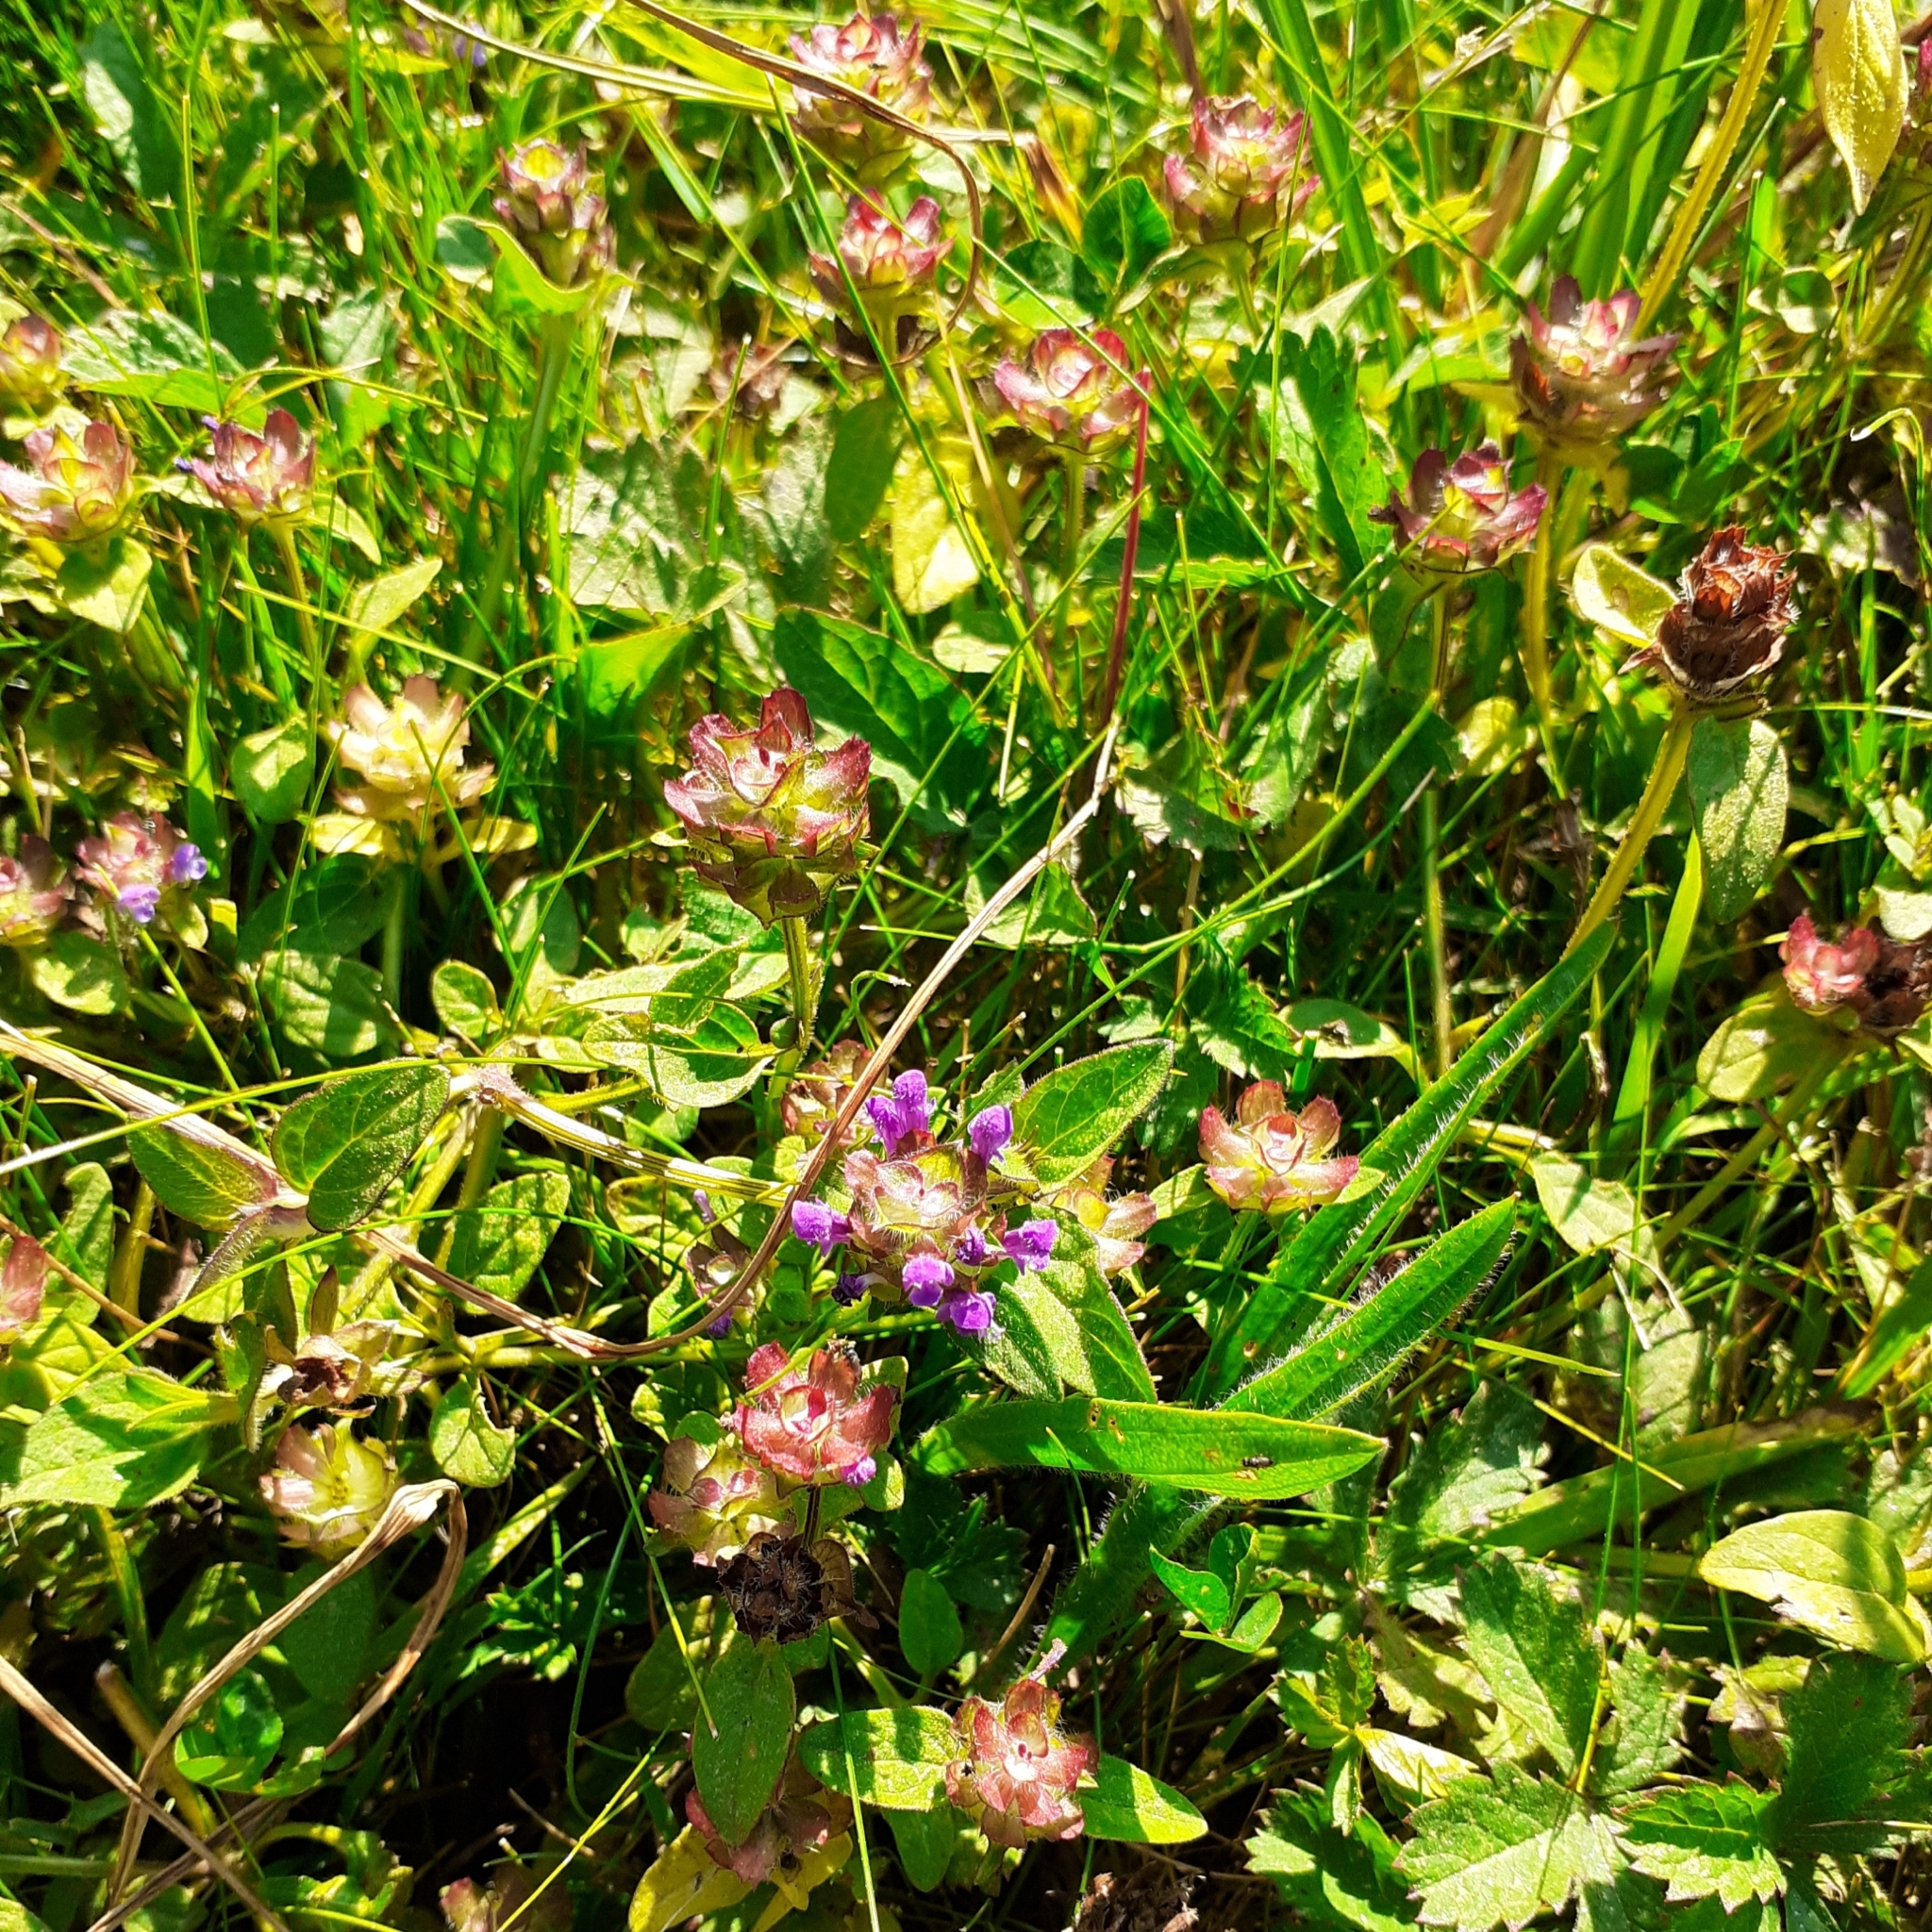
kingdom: Plantae
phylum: Tracheophyta
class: Magnoliopsida
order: Lamiales
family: Lamiaceae
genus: Prunella
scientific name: Prunella vulgaris
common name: Heal-all
